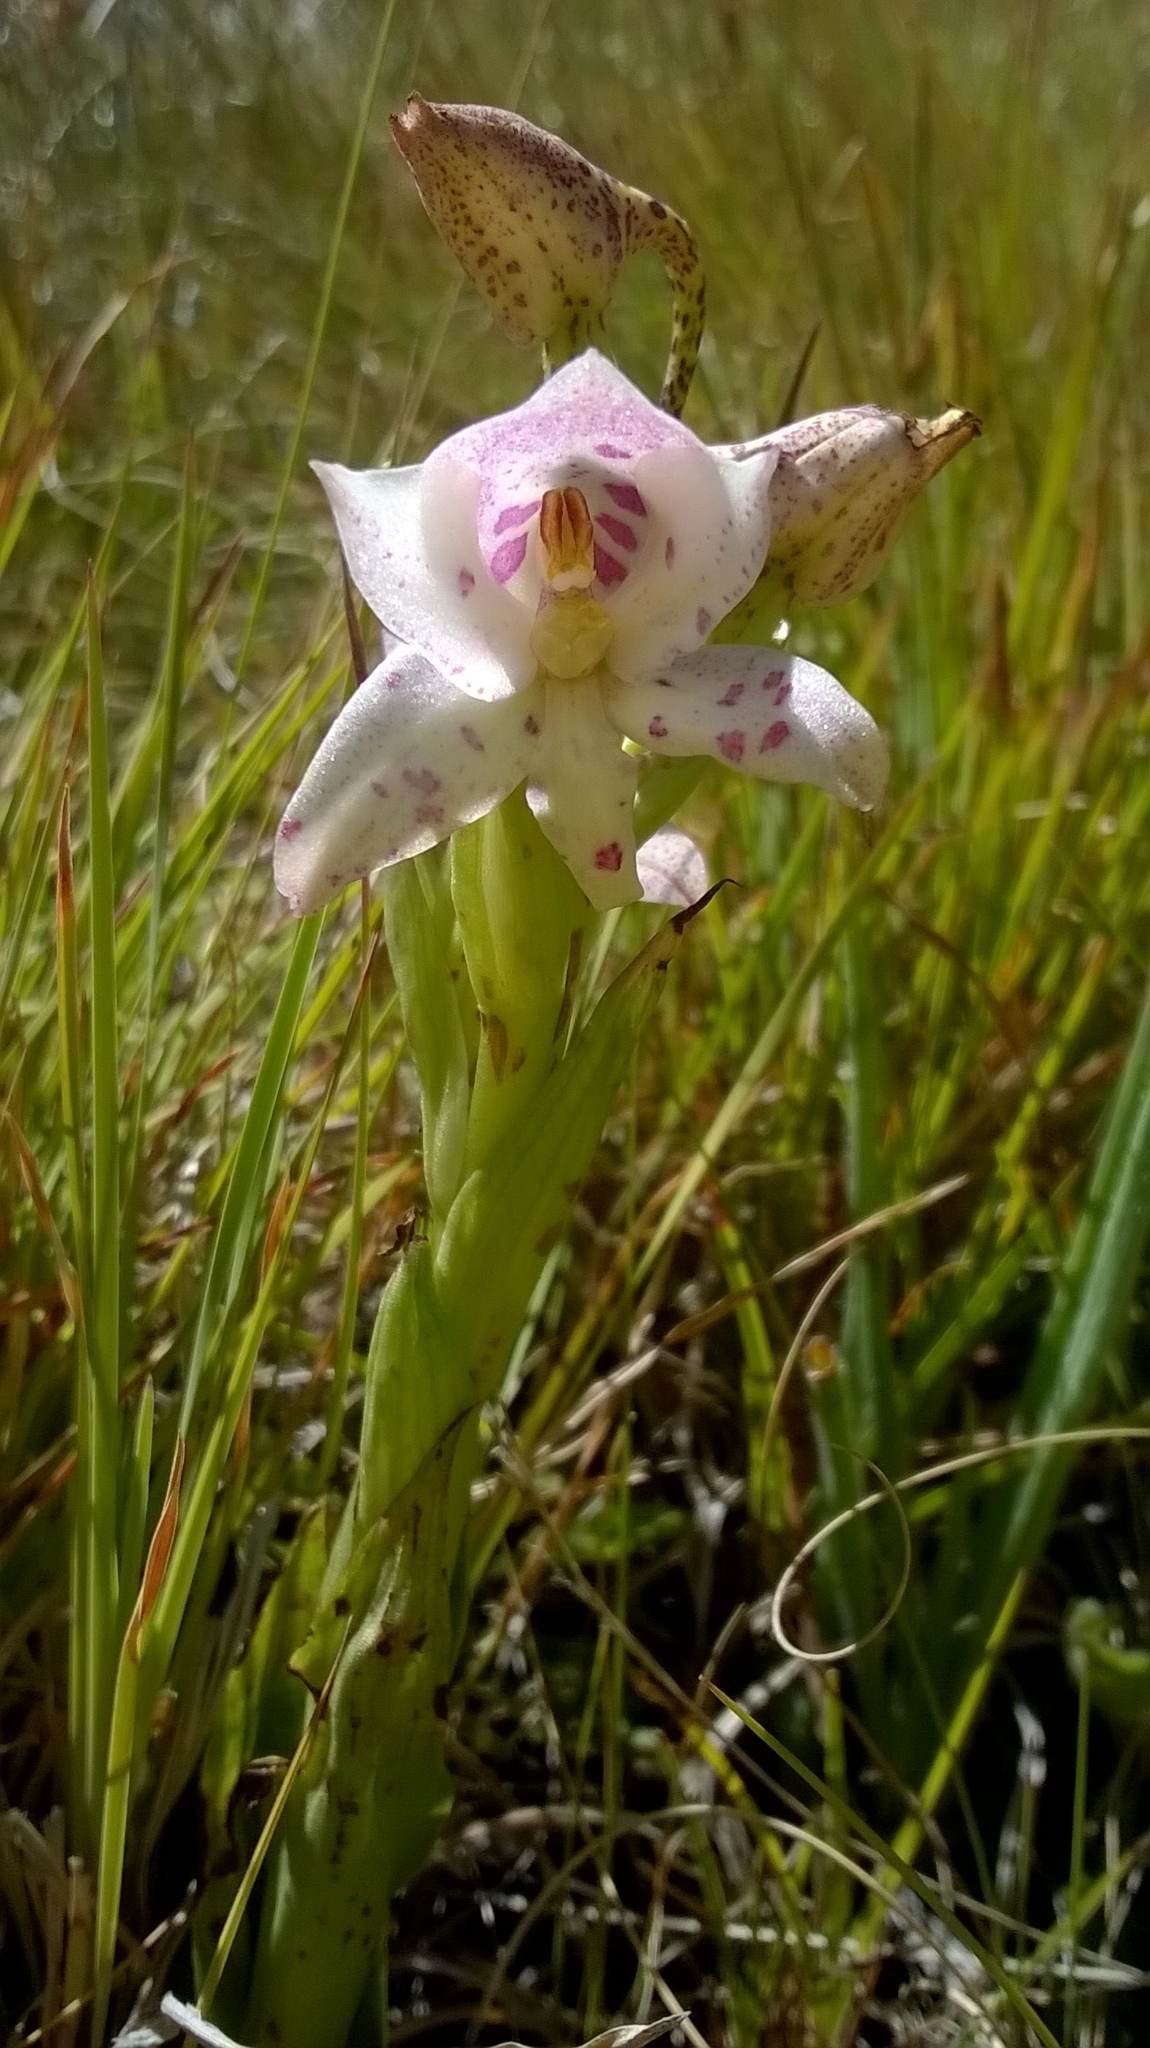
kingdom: Plantae
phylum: Tracheophyta
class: Liliopsida
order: Asparagales
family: Orchidaceae
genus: Disa
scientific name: Disa thodei
